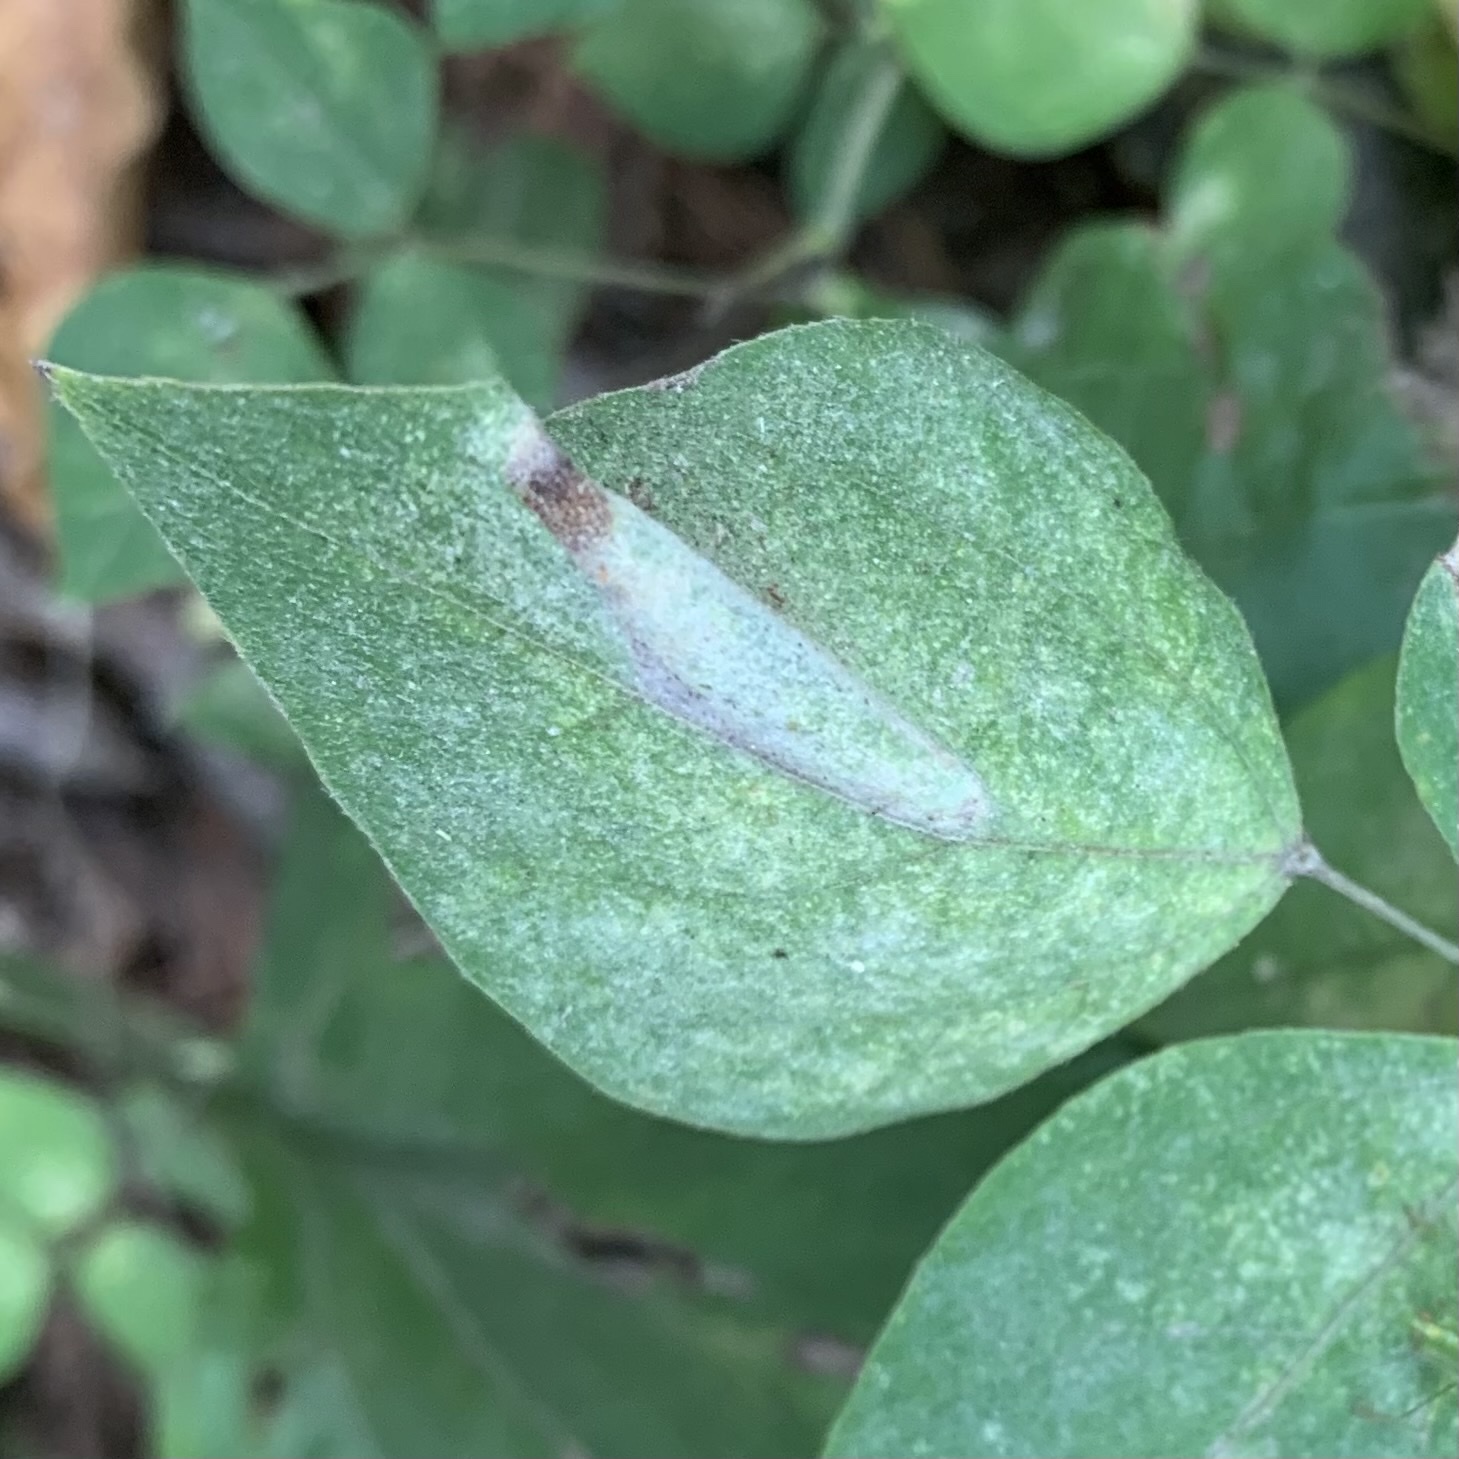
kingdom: Animalia
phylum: Arthropoda
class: Insecta
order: Lepidoptera
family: Gracillariidae
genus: Macrosaccus
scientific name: Macrosaccus morrisella
